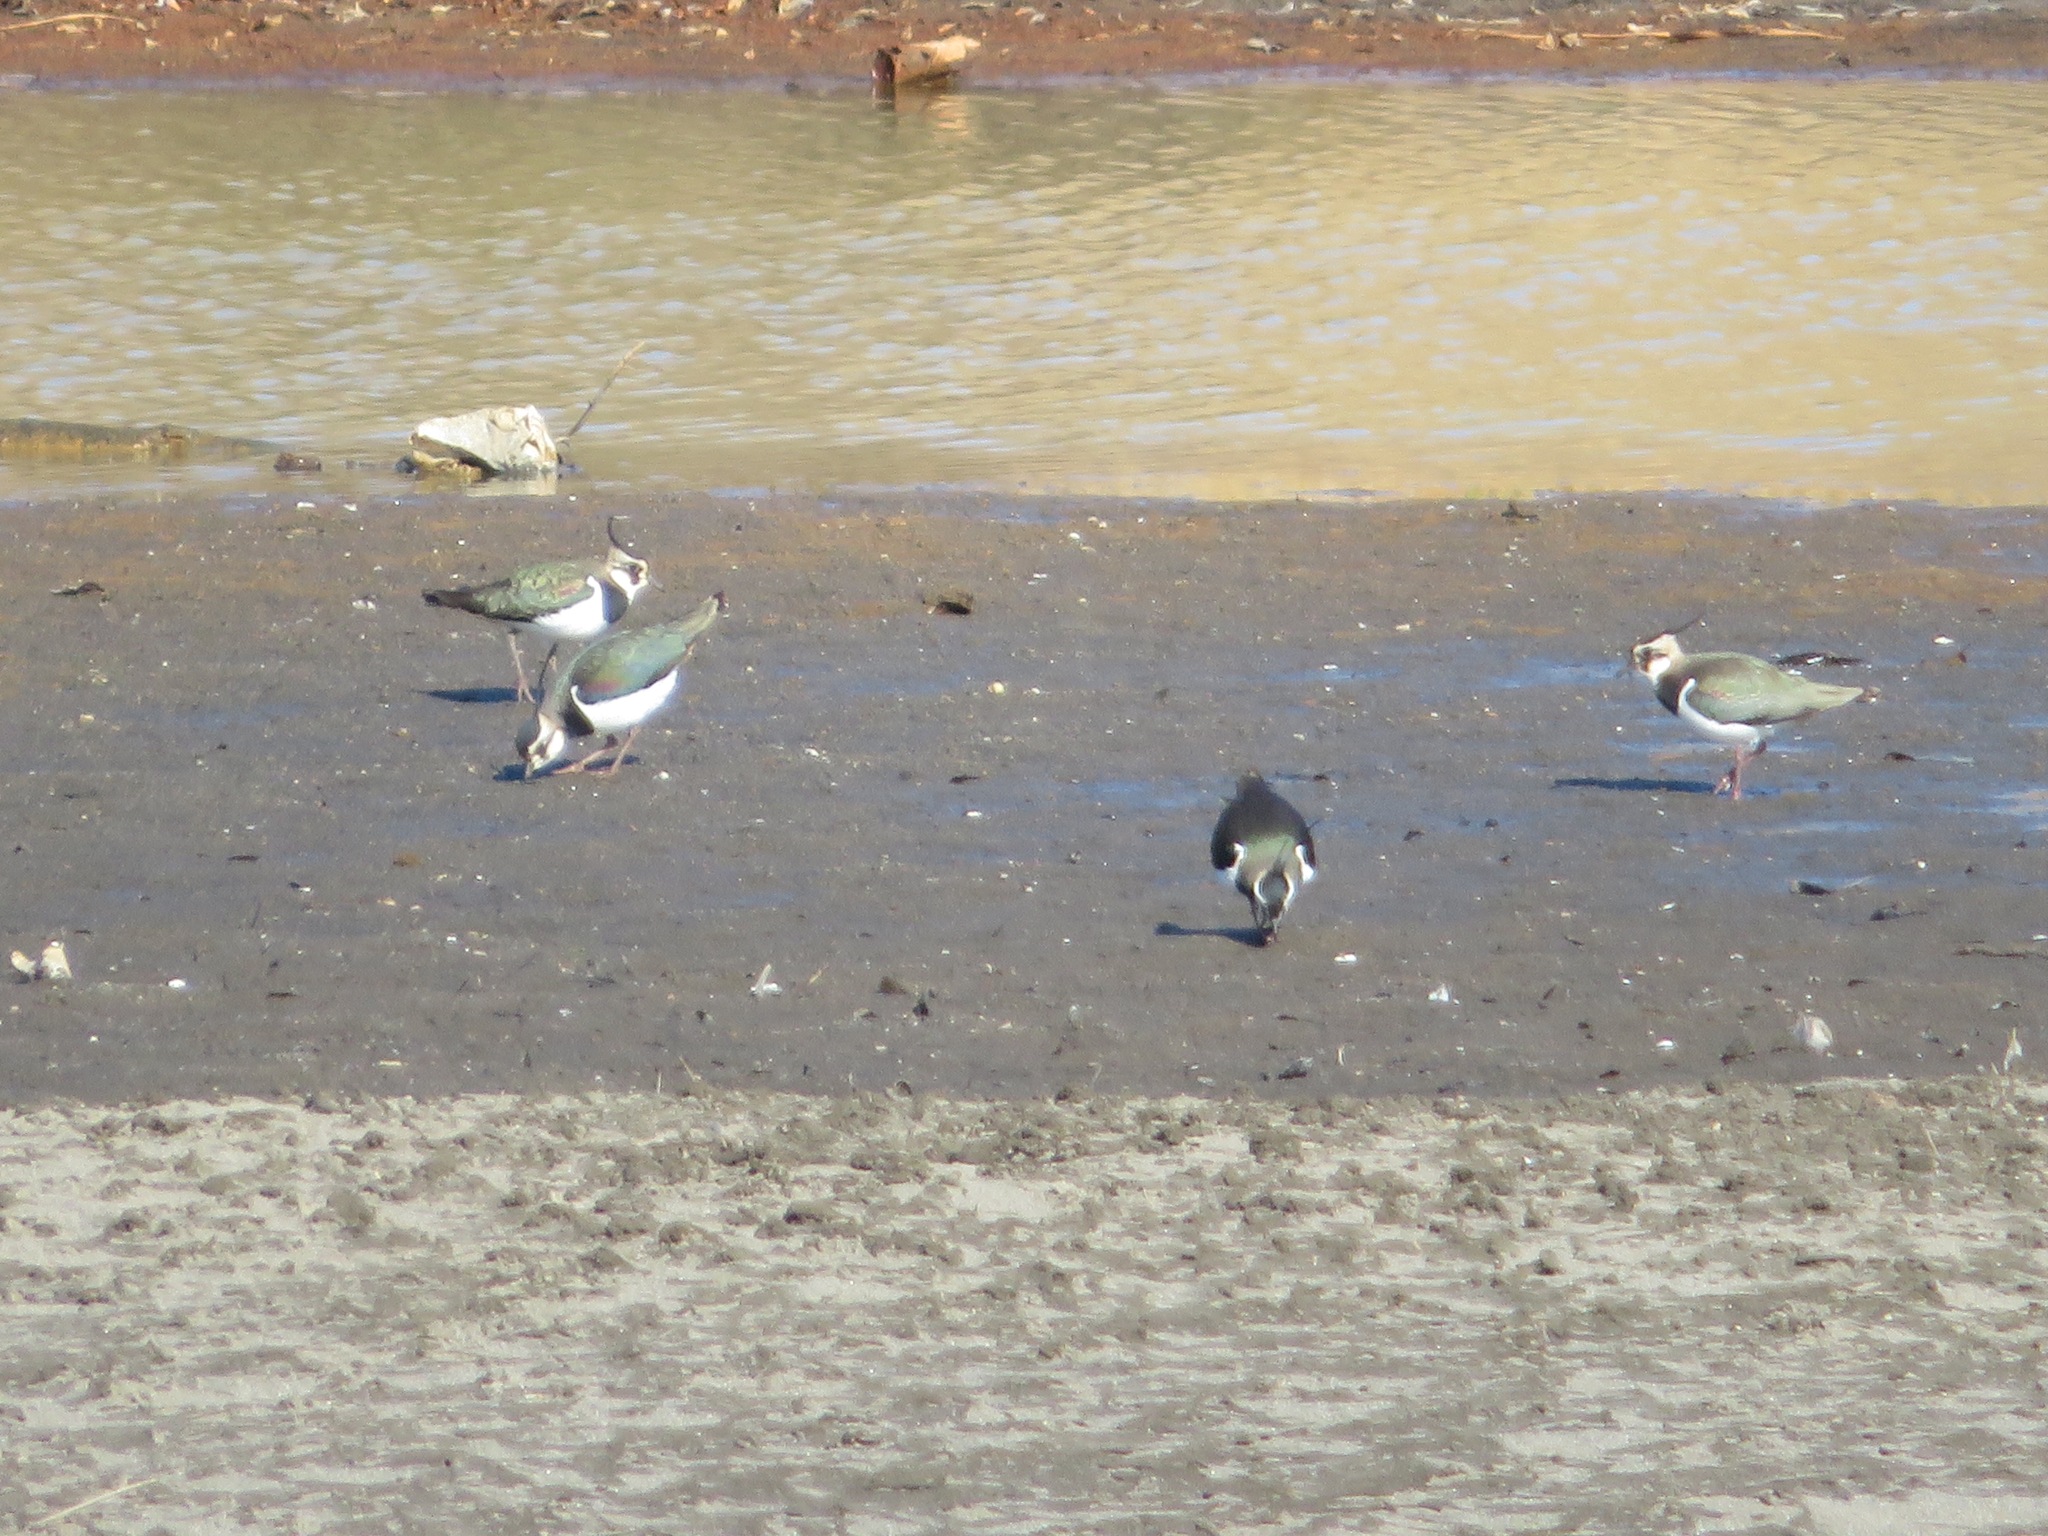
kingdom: Animalia
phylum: Chordata
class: Aves
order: Charadriiformes
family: Charadriidae
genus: Vanellus
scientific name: Vanellus vanellus
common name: Northern lapwing
